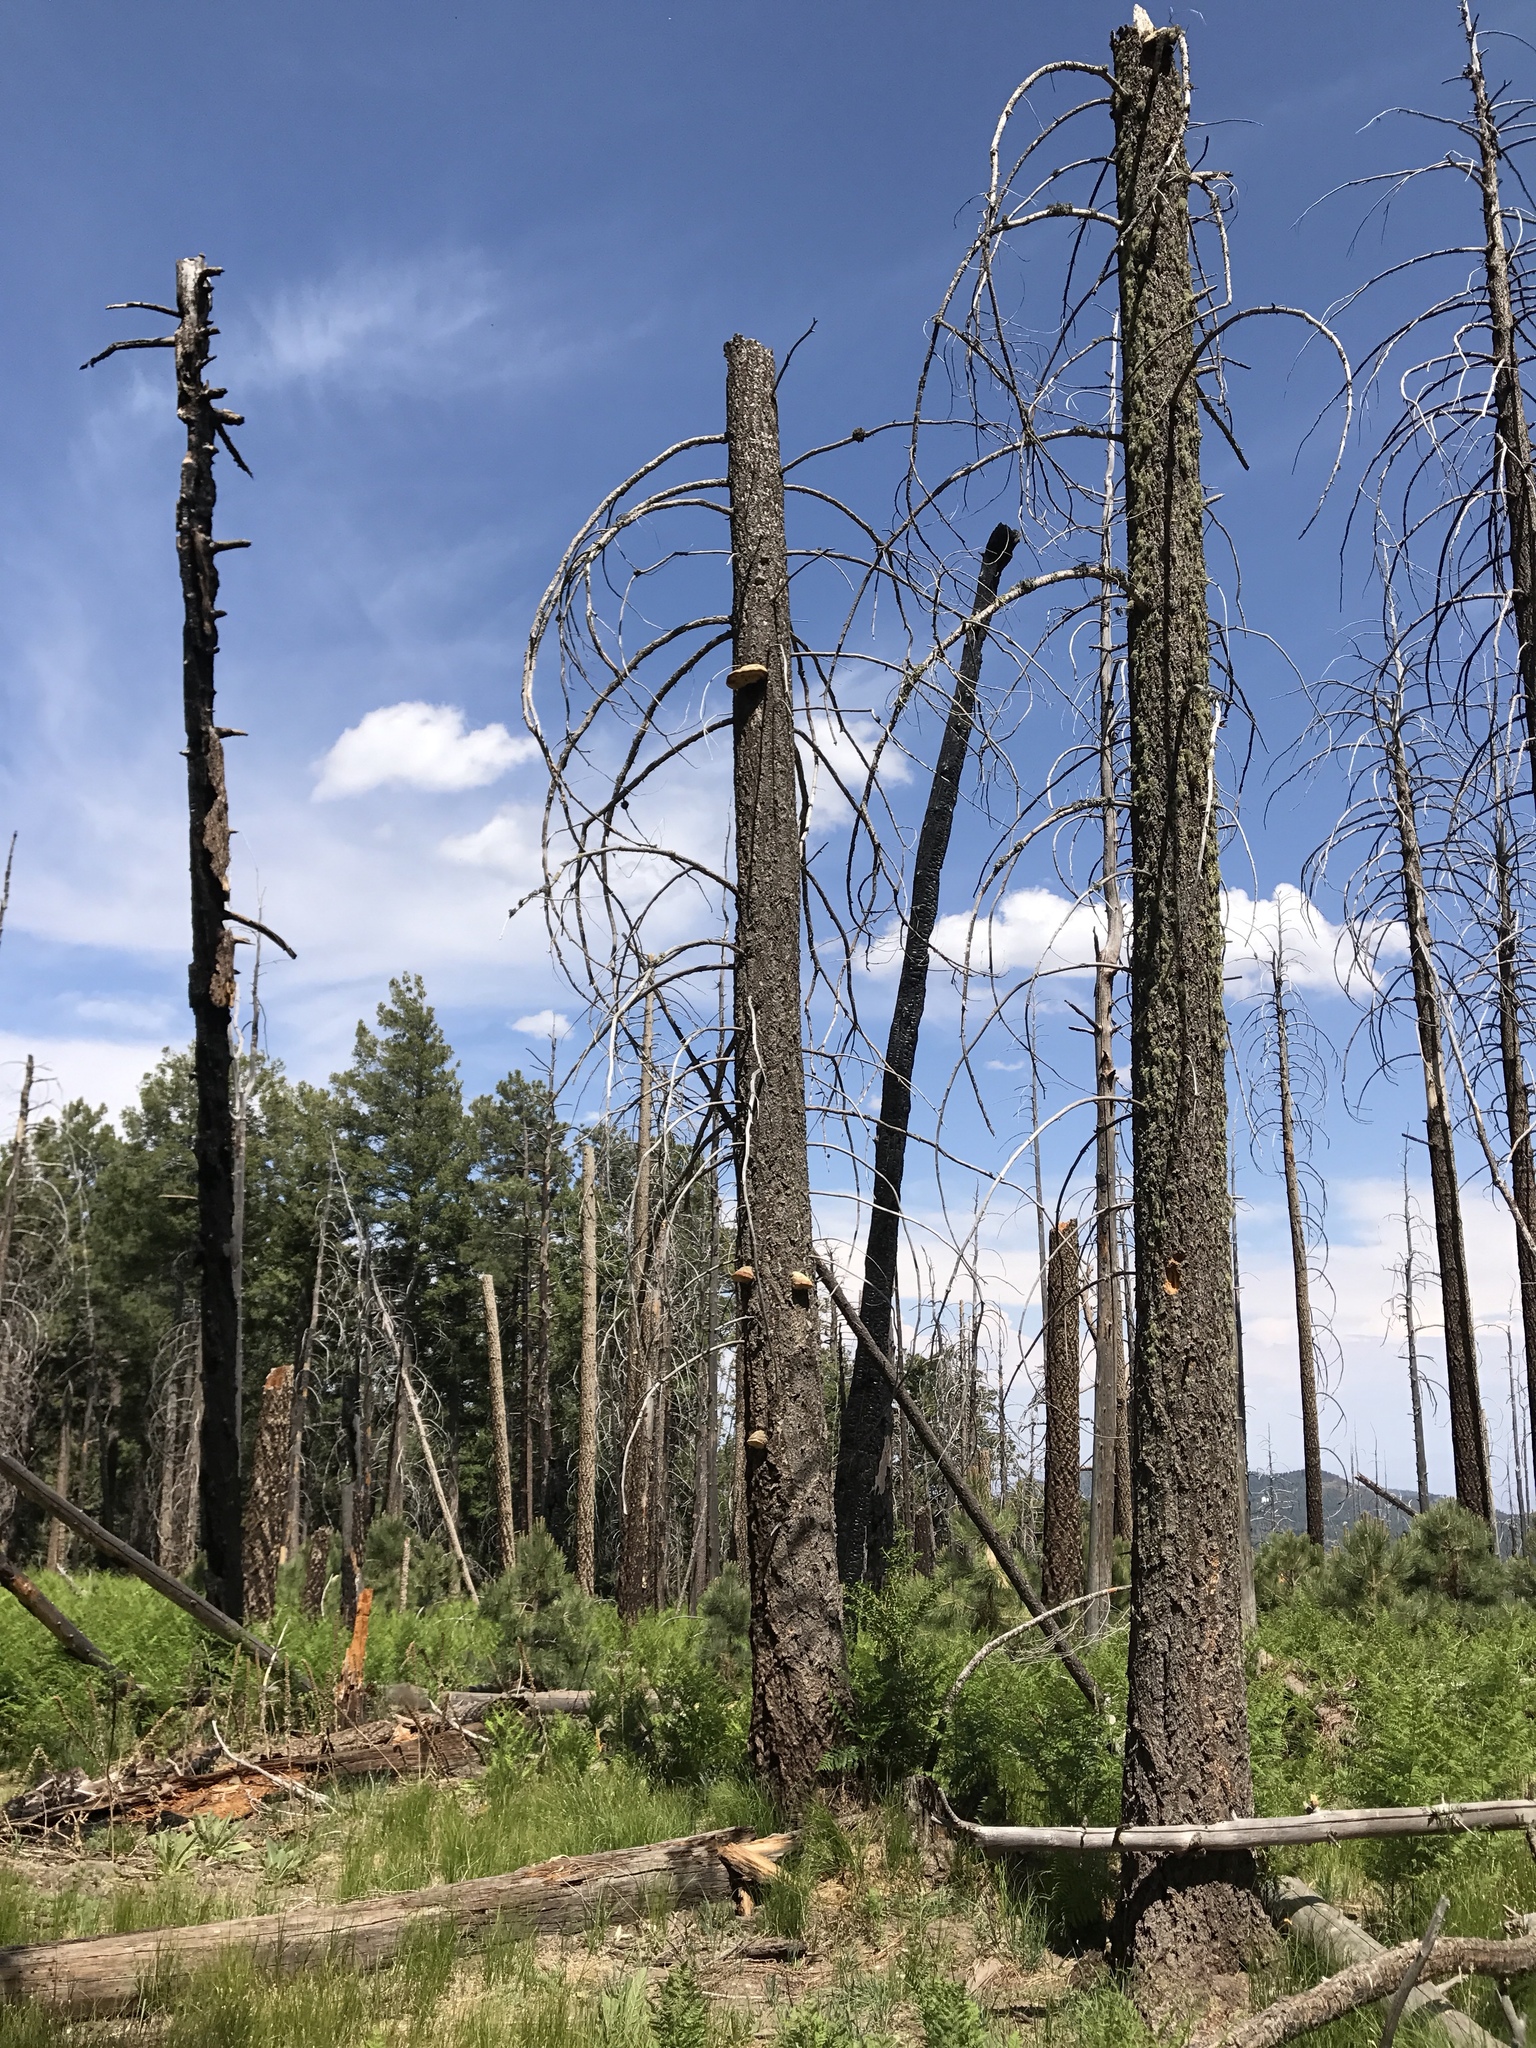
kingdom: Fungi
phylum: Basidiomycota
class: Agaricomycetes
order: Polyporales
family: Fomitopsidaceae
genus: Fomitopsis
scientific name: Fomitopsis schrenkii
